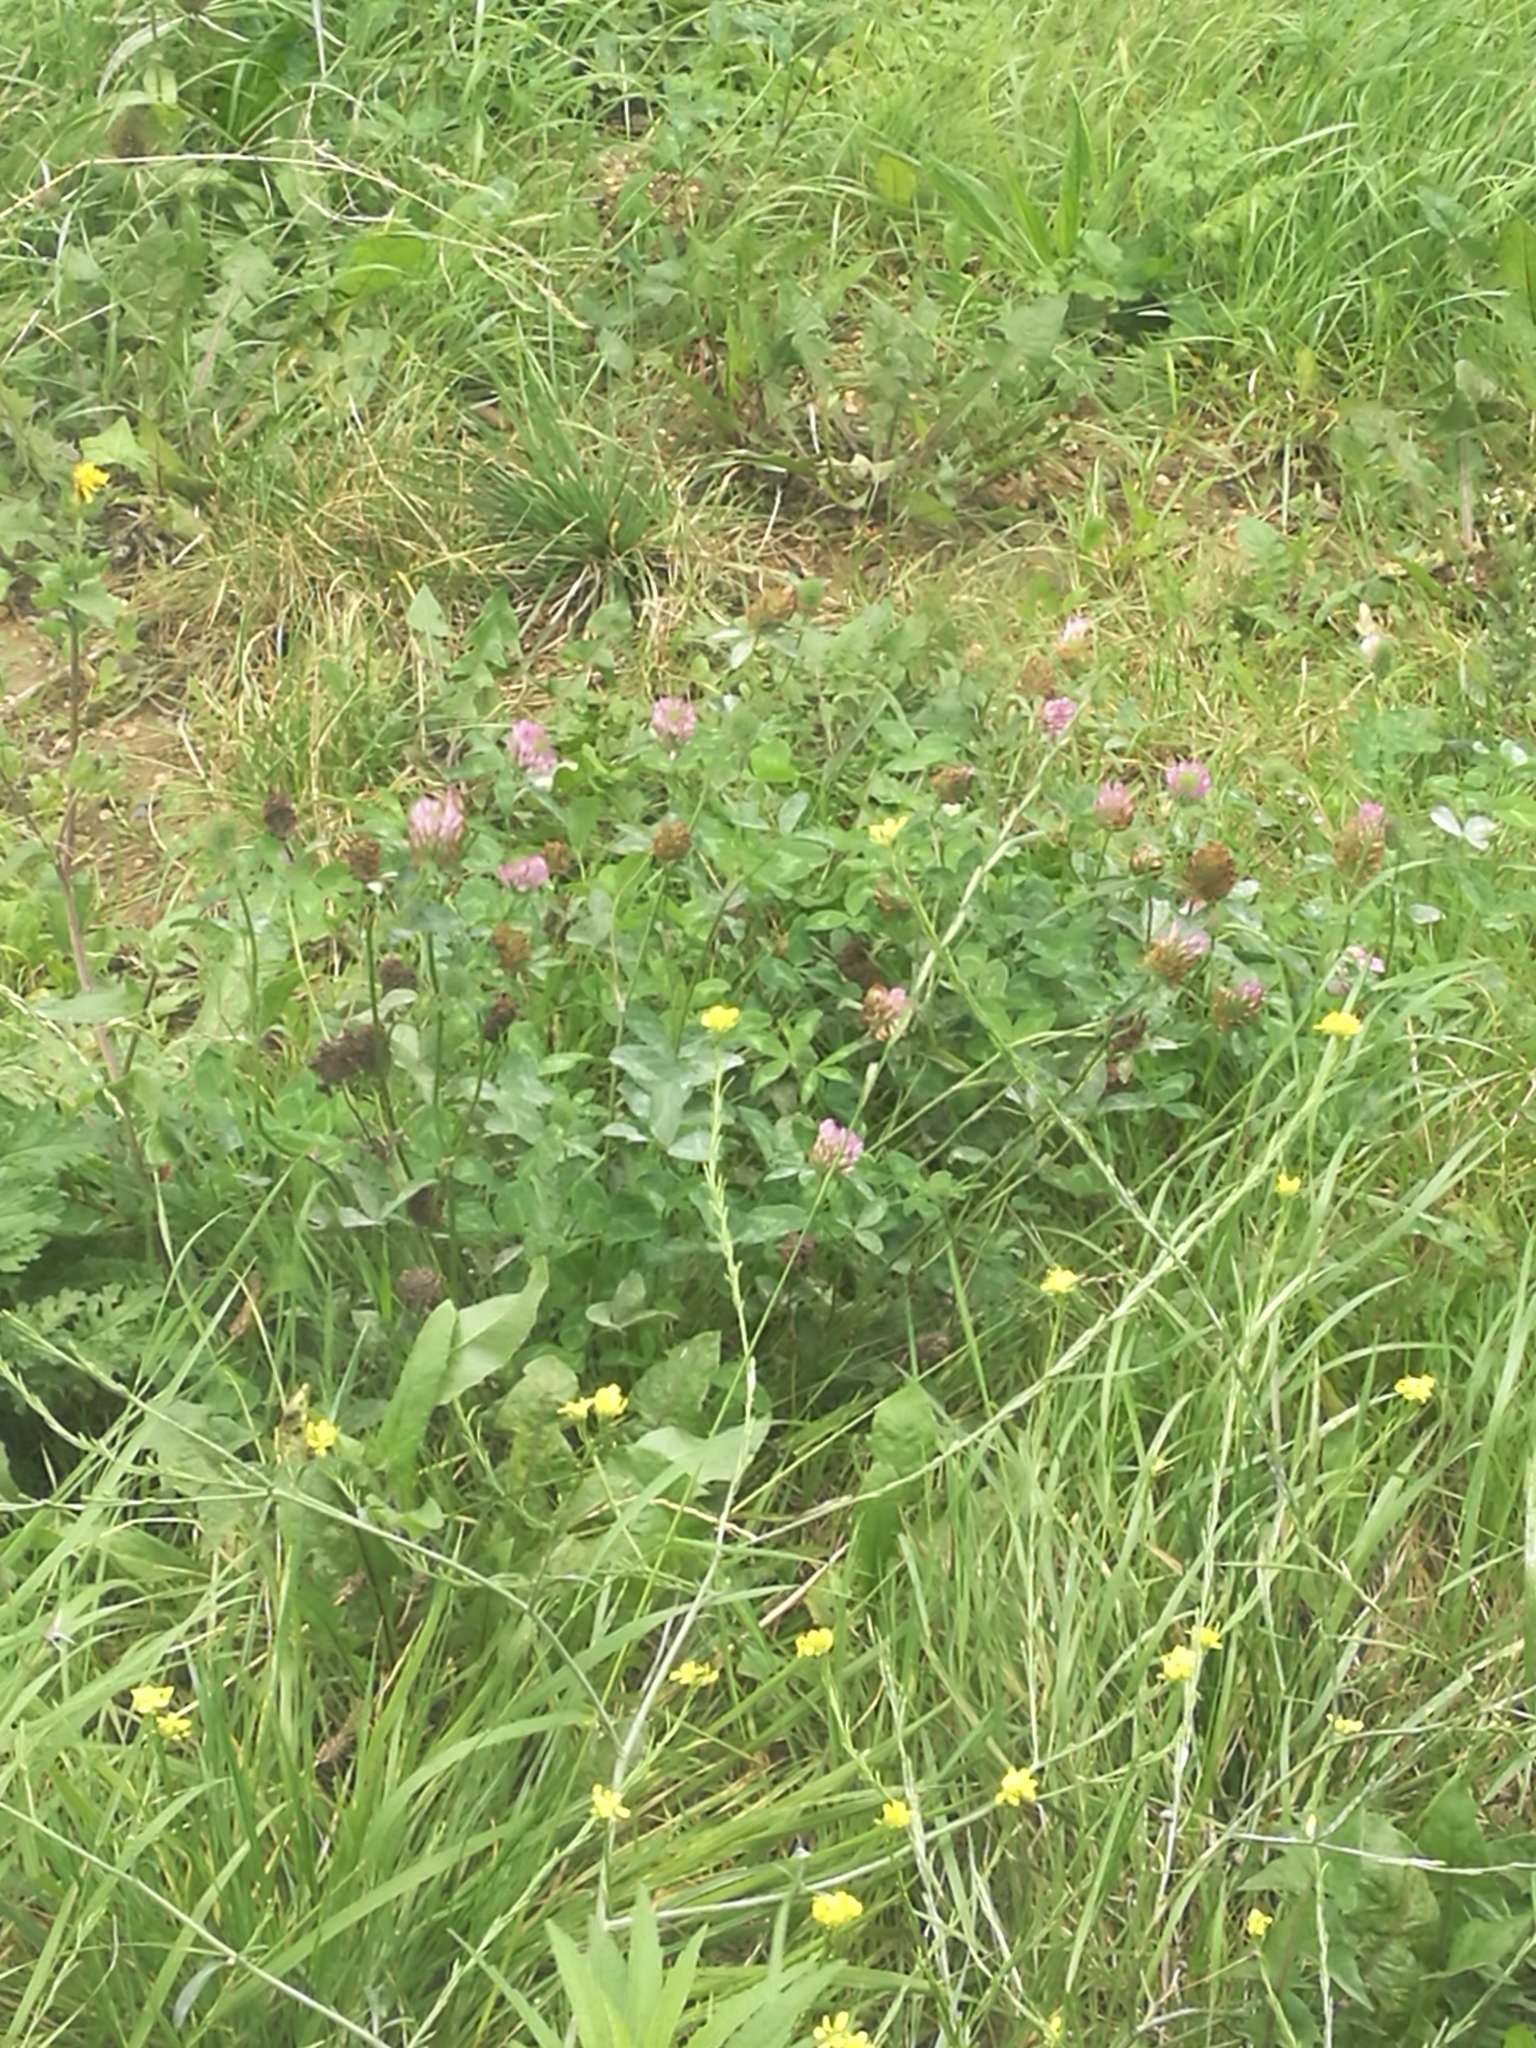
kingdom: Plantae
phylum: Tracheophyta
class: Magnoliopsida
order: Fabales
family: Fabaceae
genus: Trifolium
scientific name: Trifolium pratense
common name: Red clover
